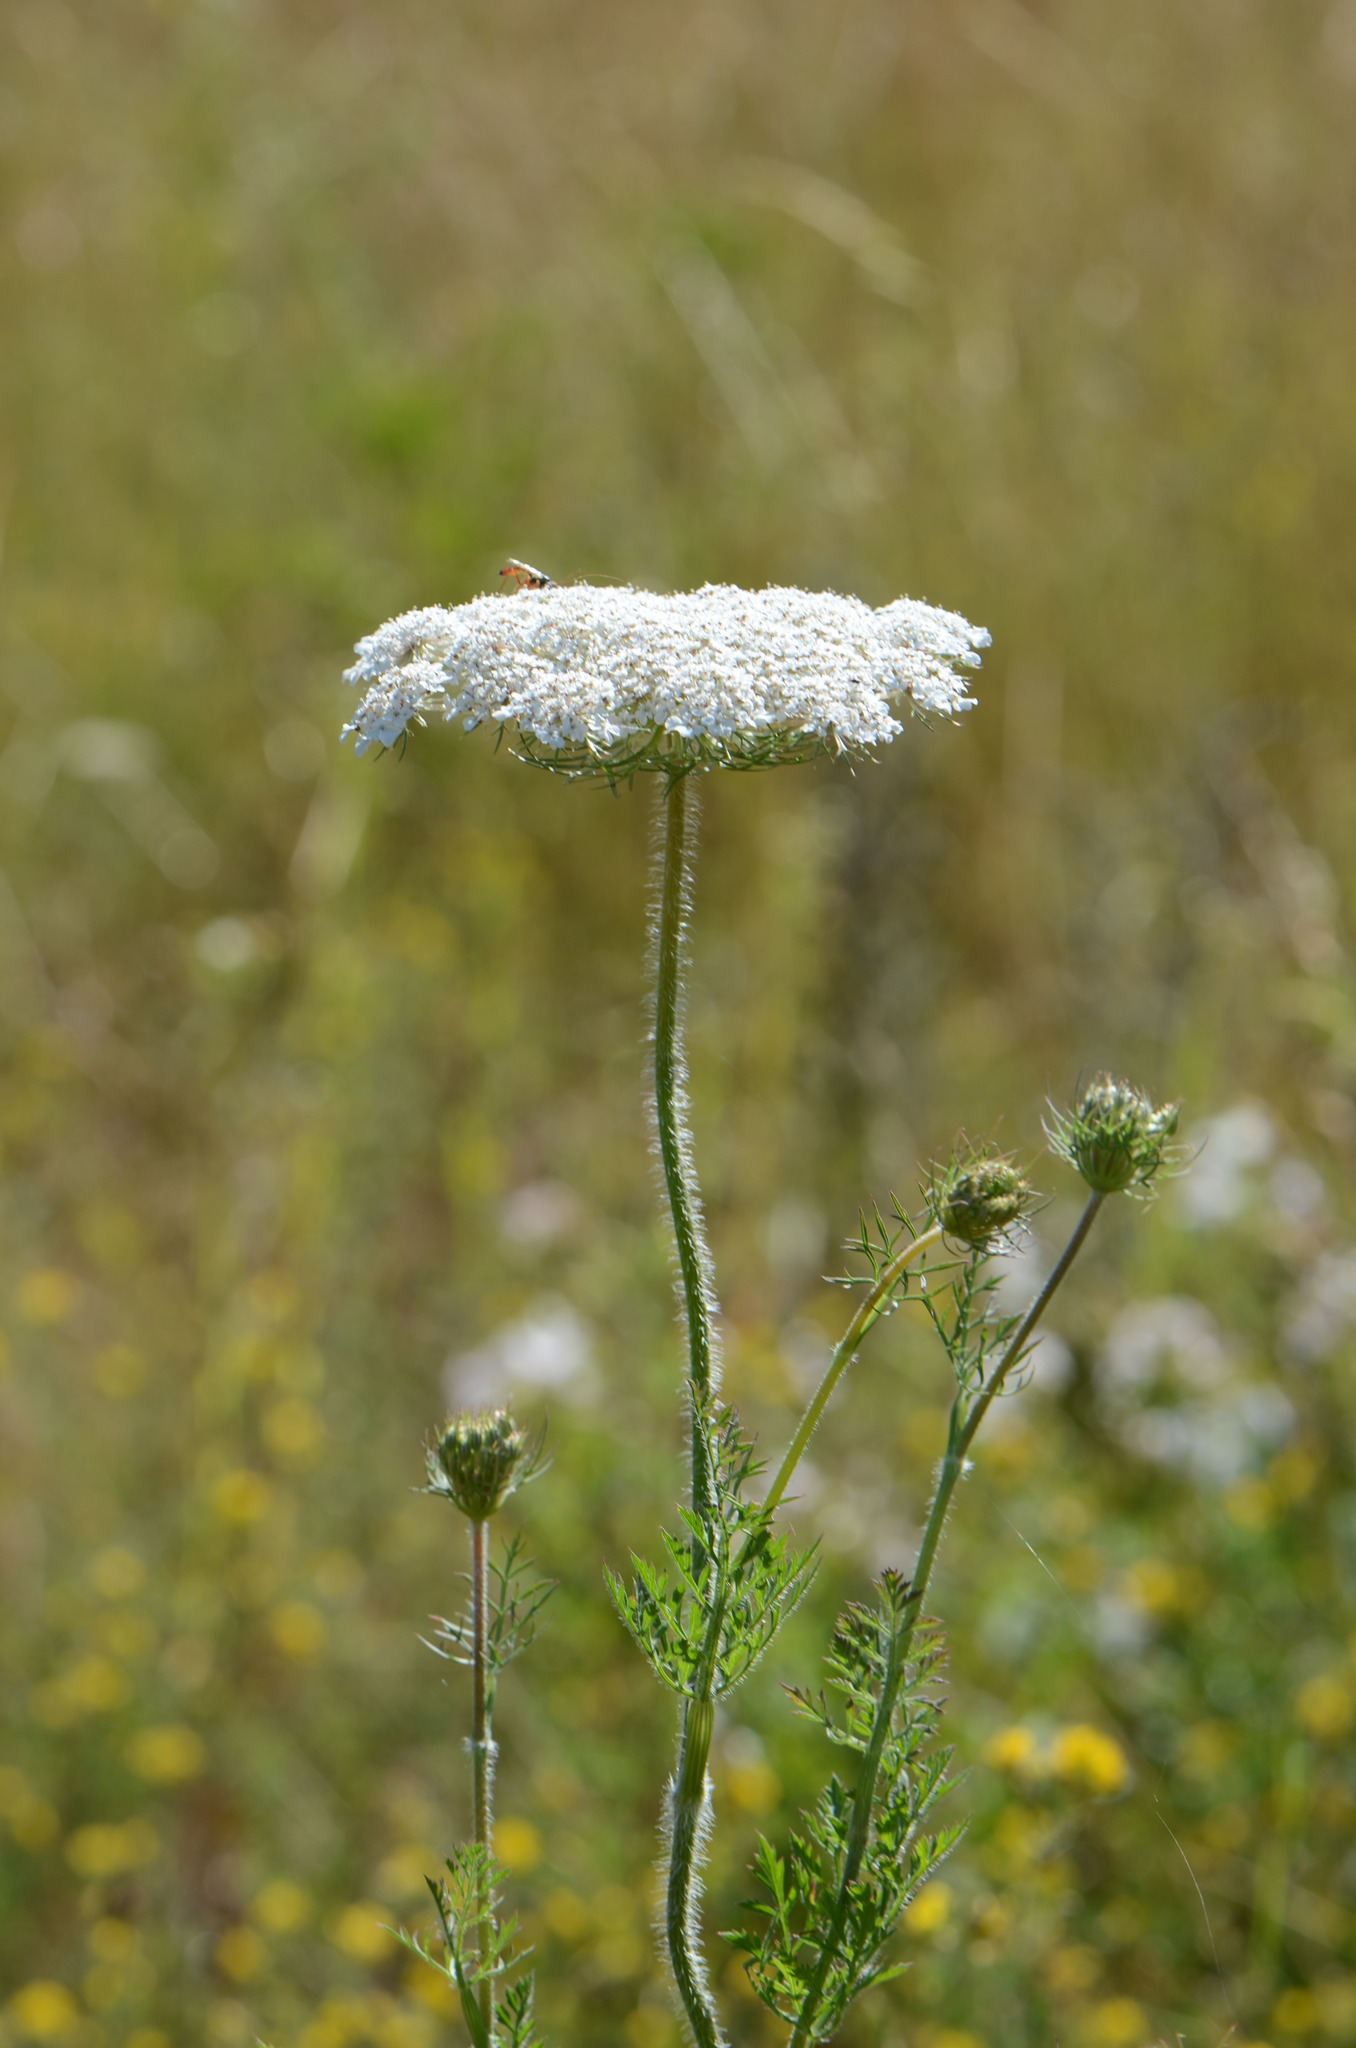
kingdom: Plantae
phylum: Tracheophyta
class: Magnoliopsida
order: Apiales
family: Apiaceae
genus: Daucus
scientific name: Daucus carota
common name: Wild carrot
